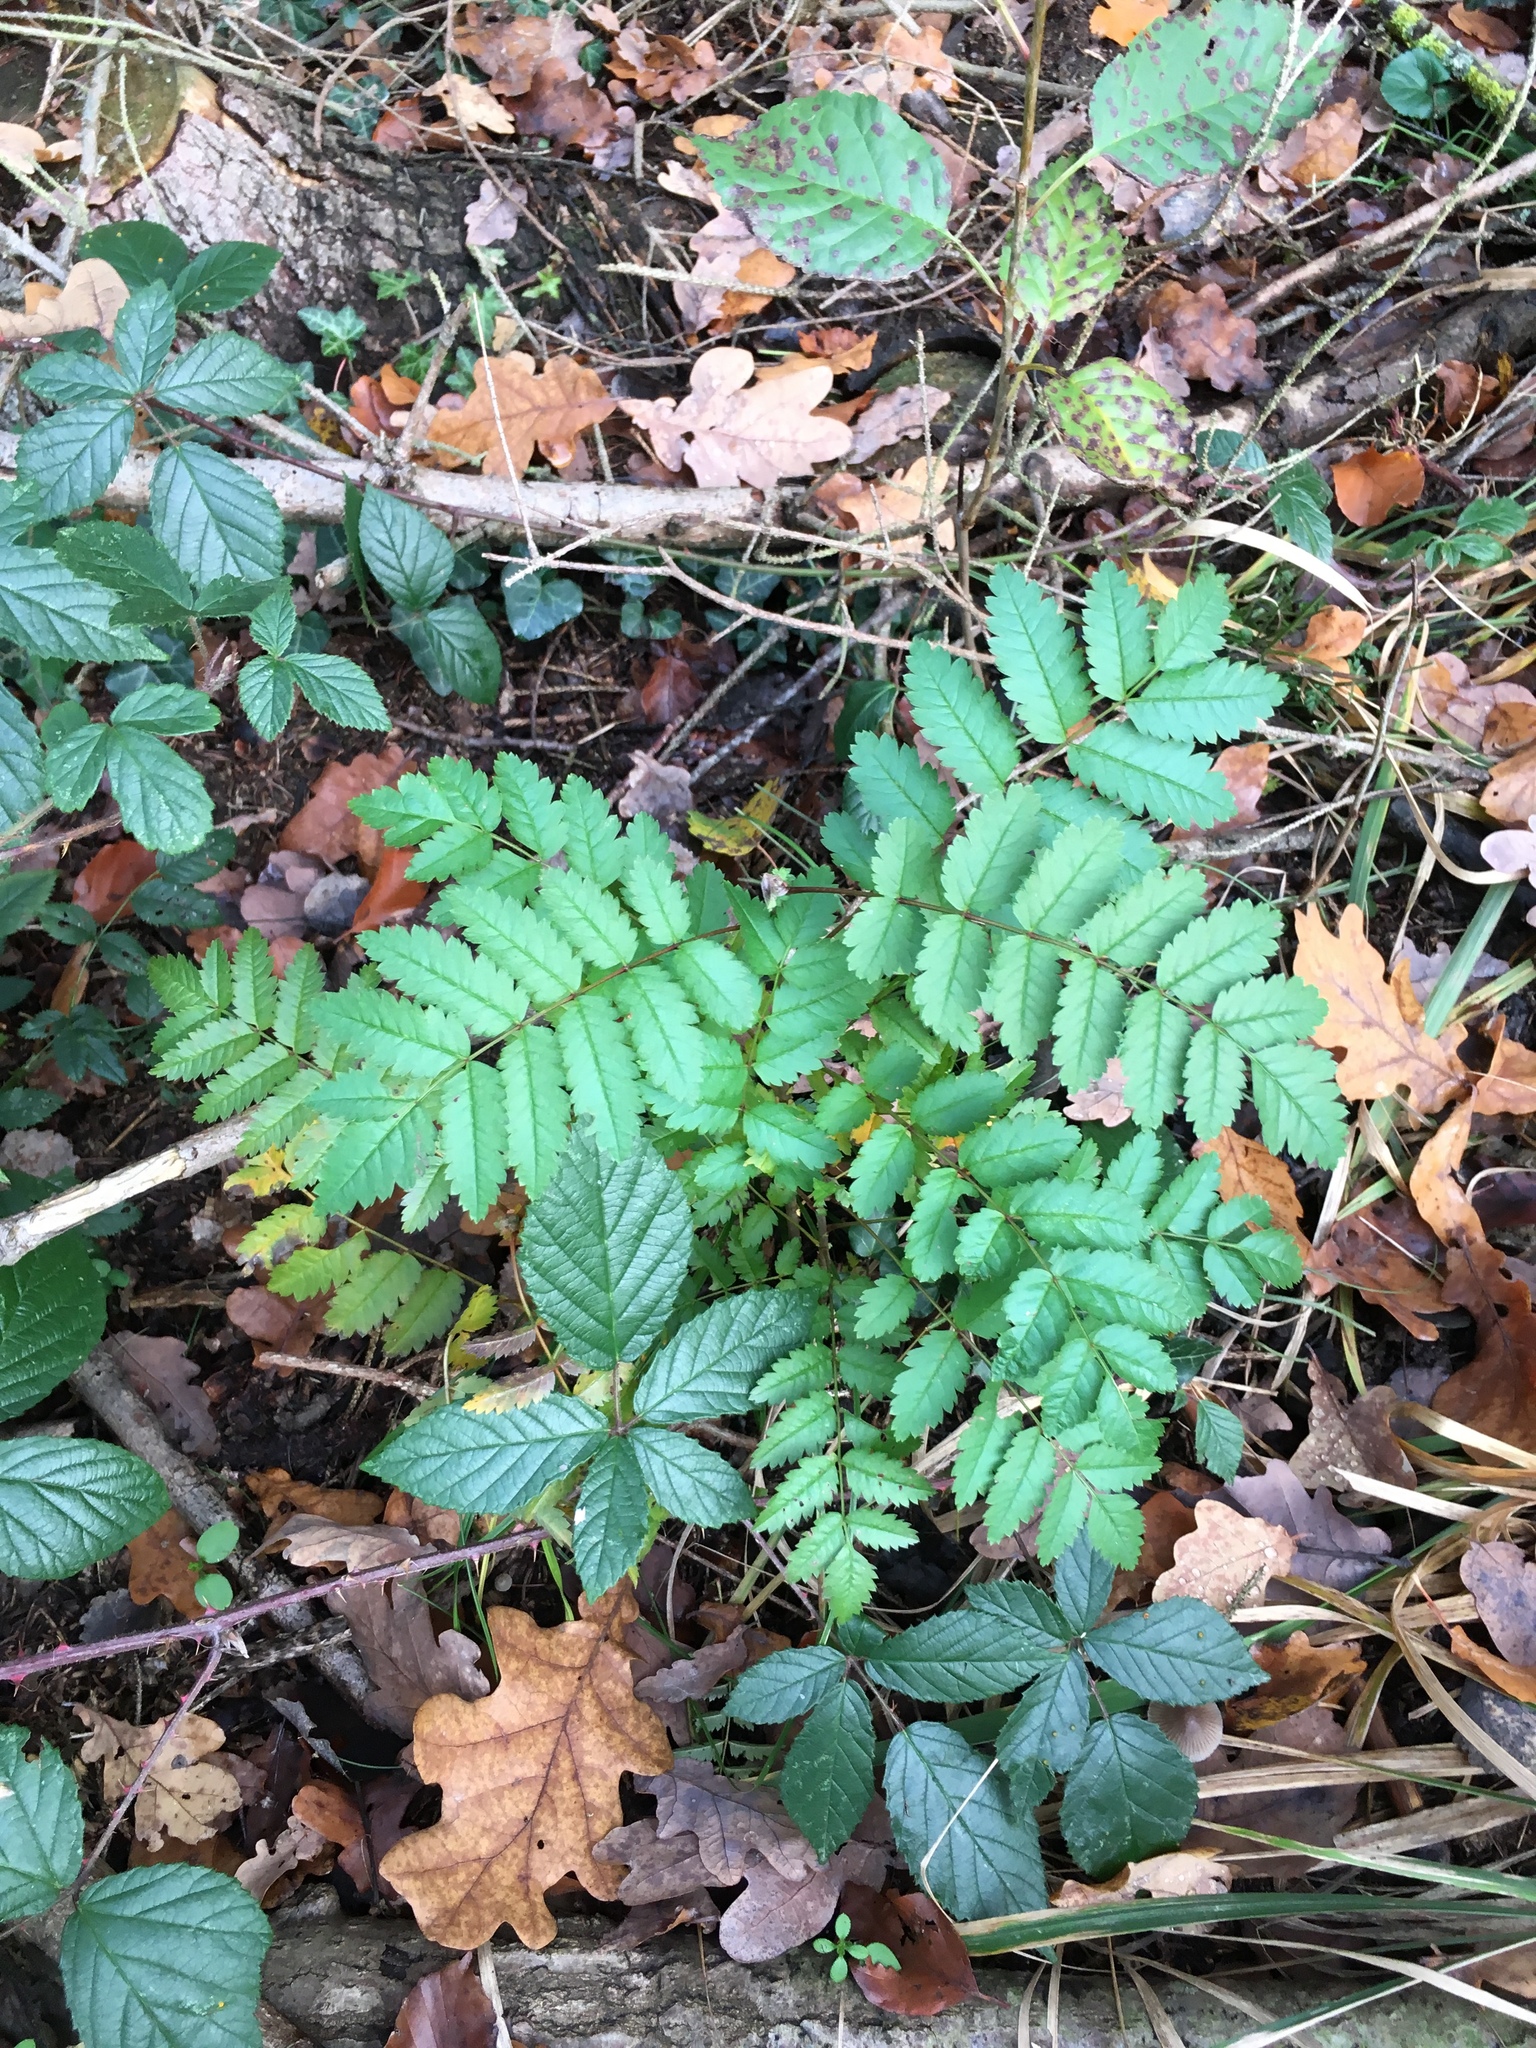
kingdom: Plantae
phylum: Tracheophyta
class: Magnoliopsida
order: Rosales
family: Rosaceae
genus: Sorbus
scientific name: Sorbus aucuparia
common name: Rowan
